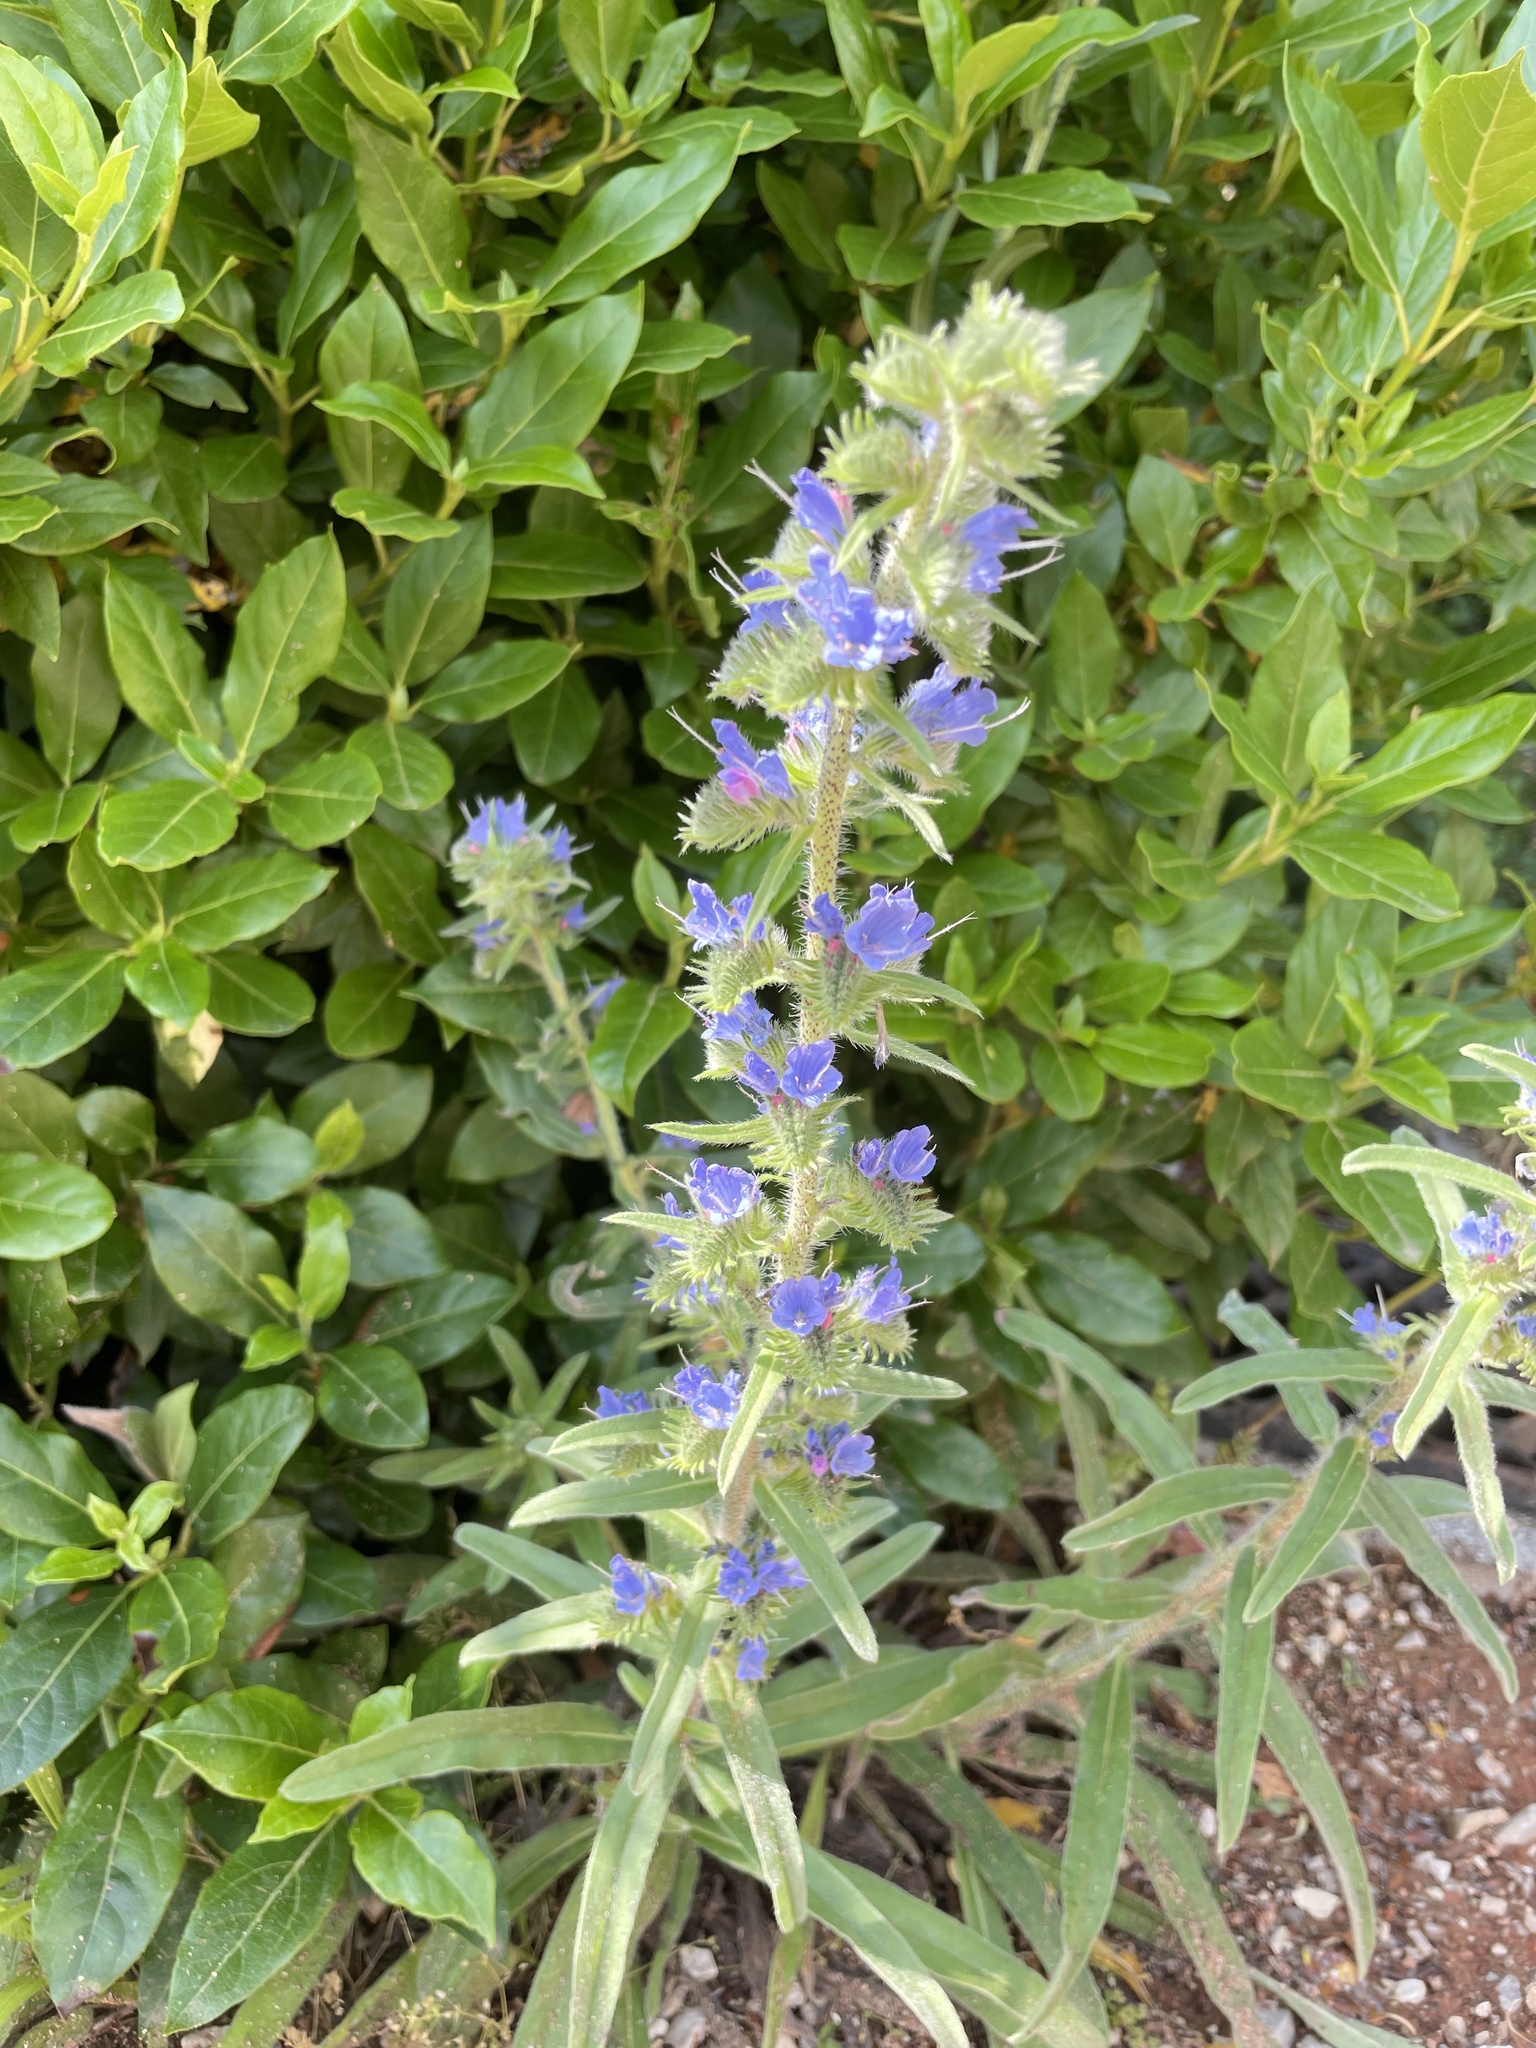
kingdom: Plantae
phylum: Tracheophyta
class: Magnoliopsida
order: Boraginales
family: Boraginaceae
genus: Echium
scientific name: Echium vulgare
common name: Common viper's bugloss
